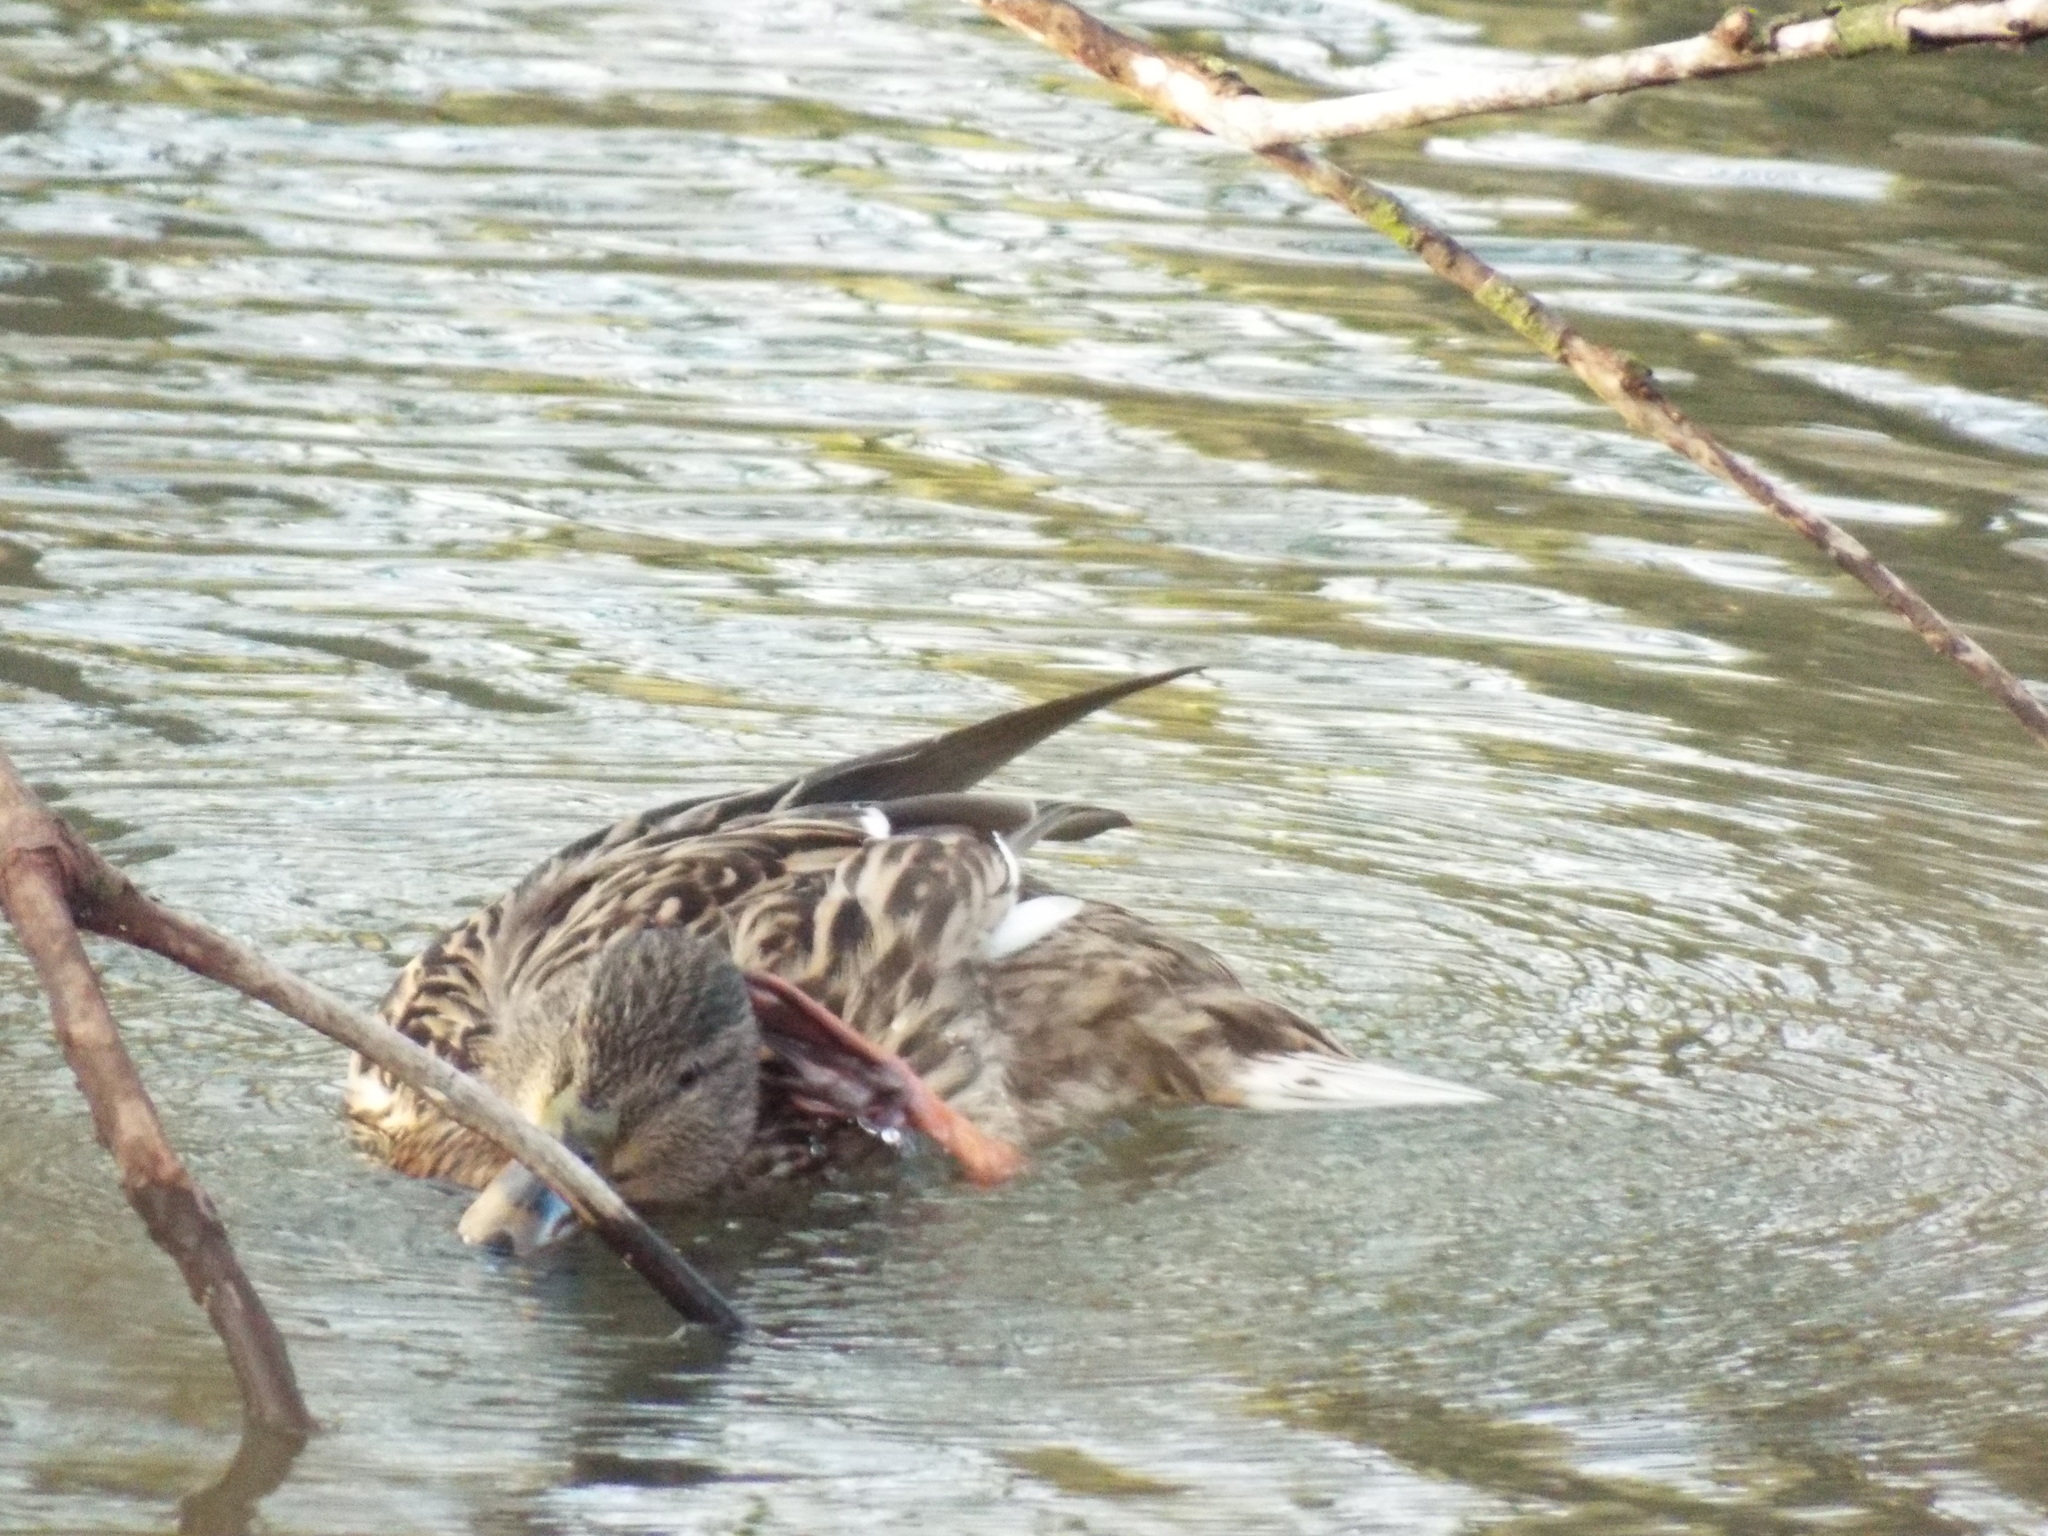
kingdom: Animalia
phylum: Chordata
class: Aves
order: Anseriformes
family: Anatidae
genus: Anas
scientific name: Anas platyrhynchos
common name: Mallard
